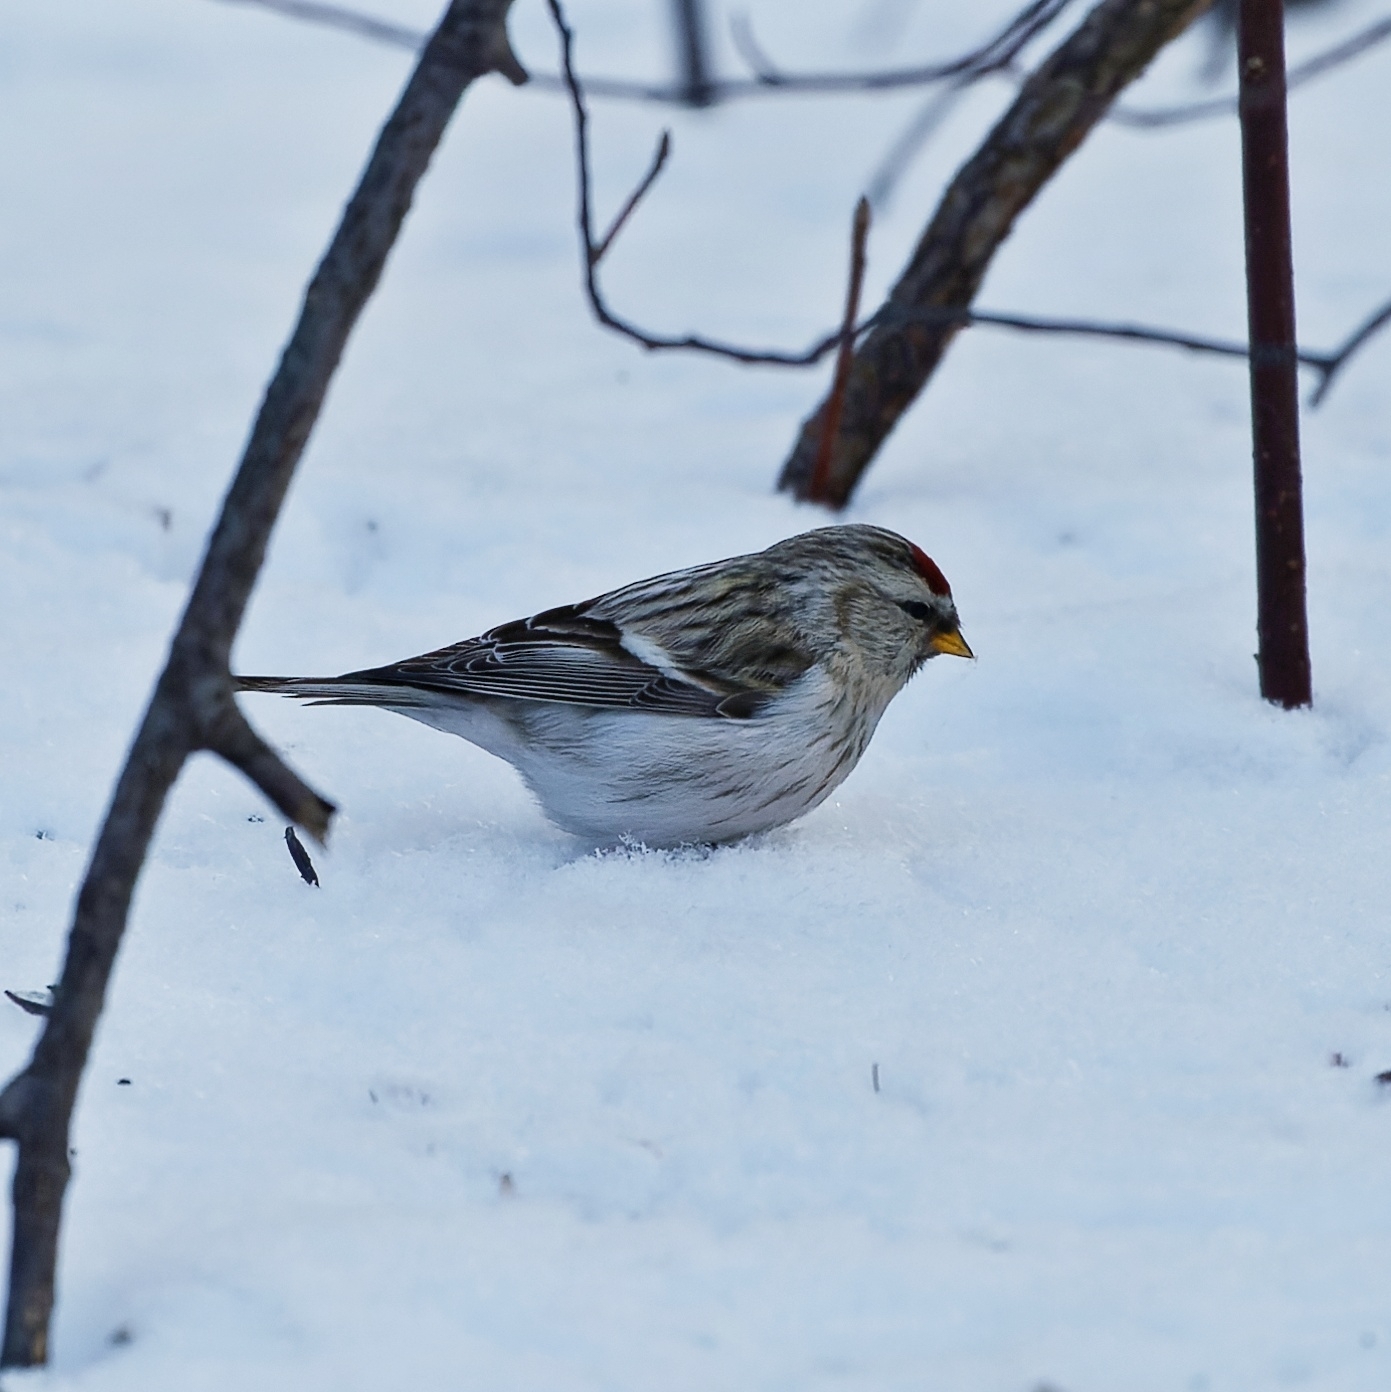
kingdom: Animalia
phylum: Chordata
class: Aves
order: Passeriformes
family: Fringillidae
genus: Acanthis
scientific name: Acanthis hornemanni
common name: Arctic redpoll
